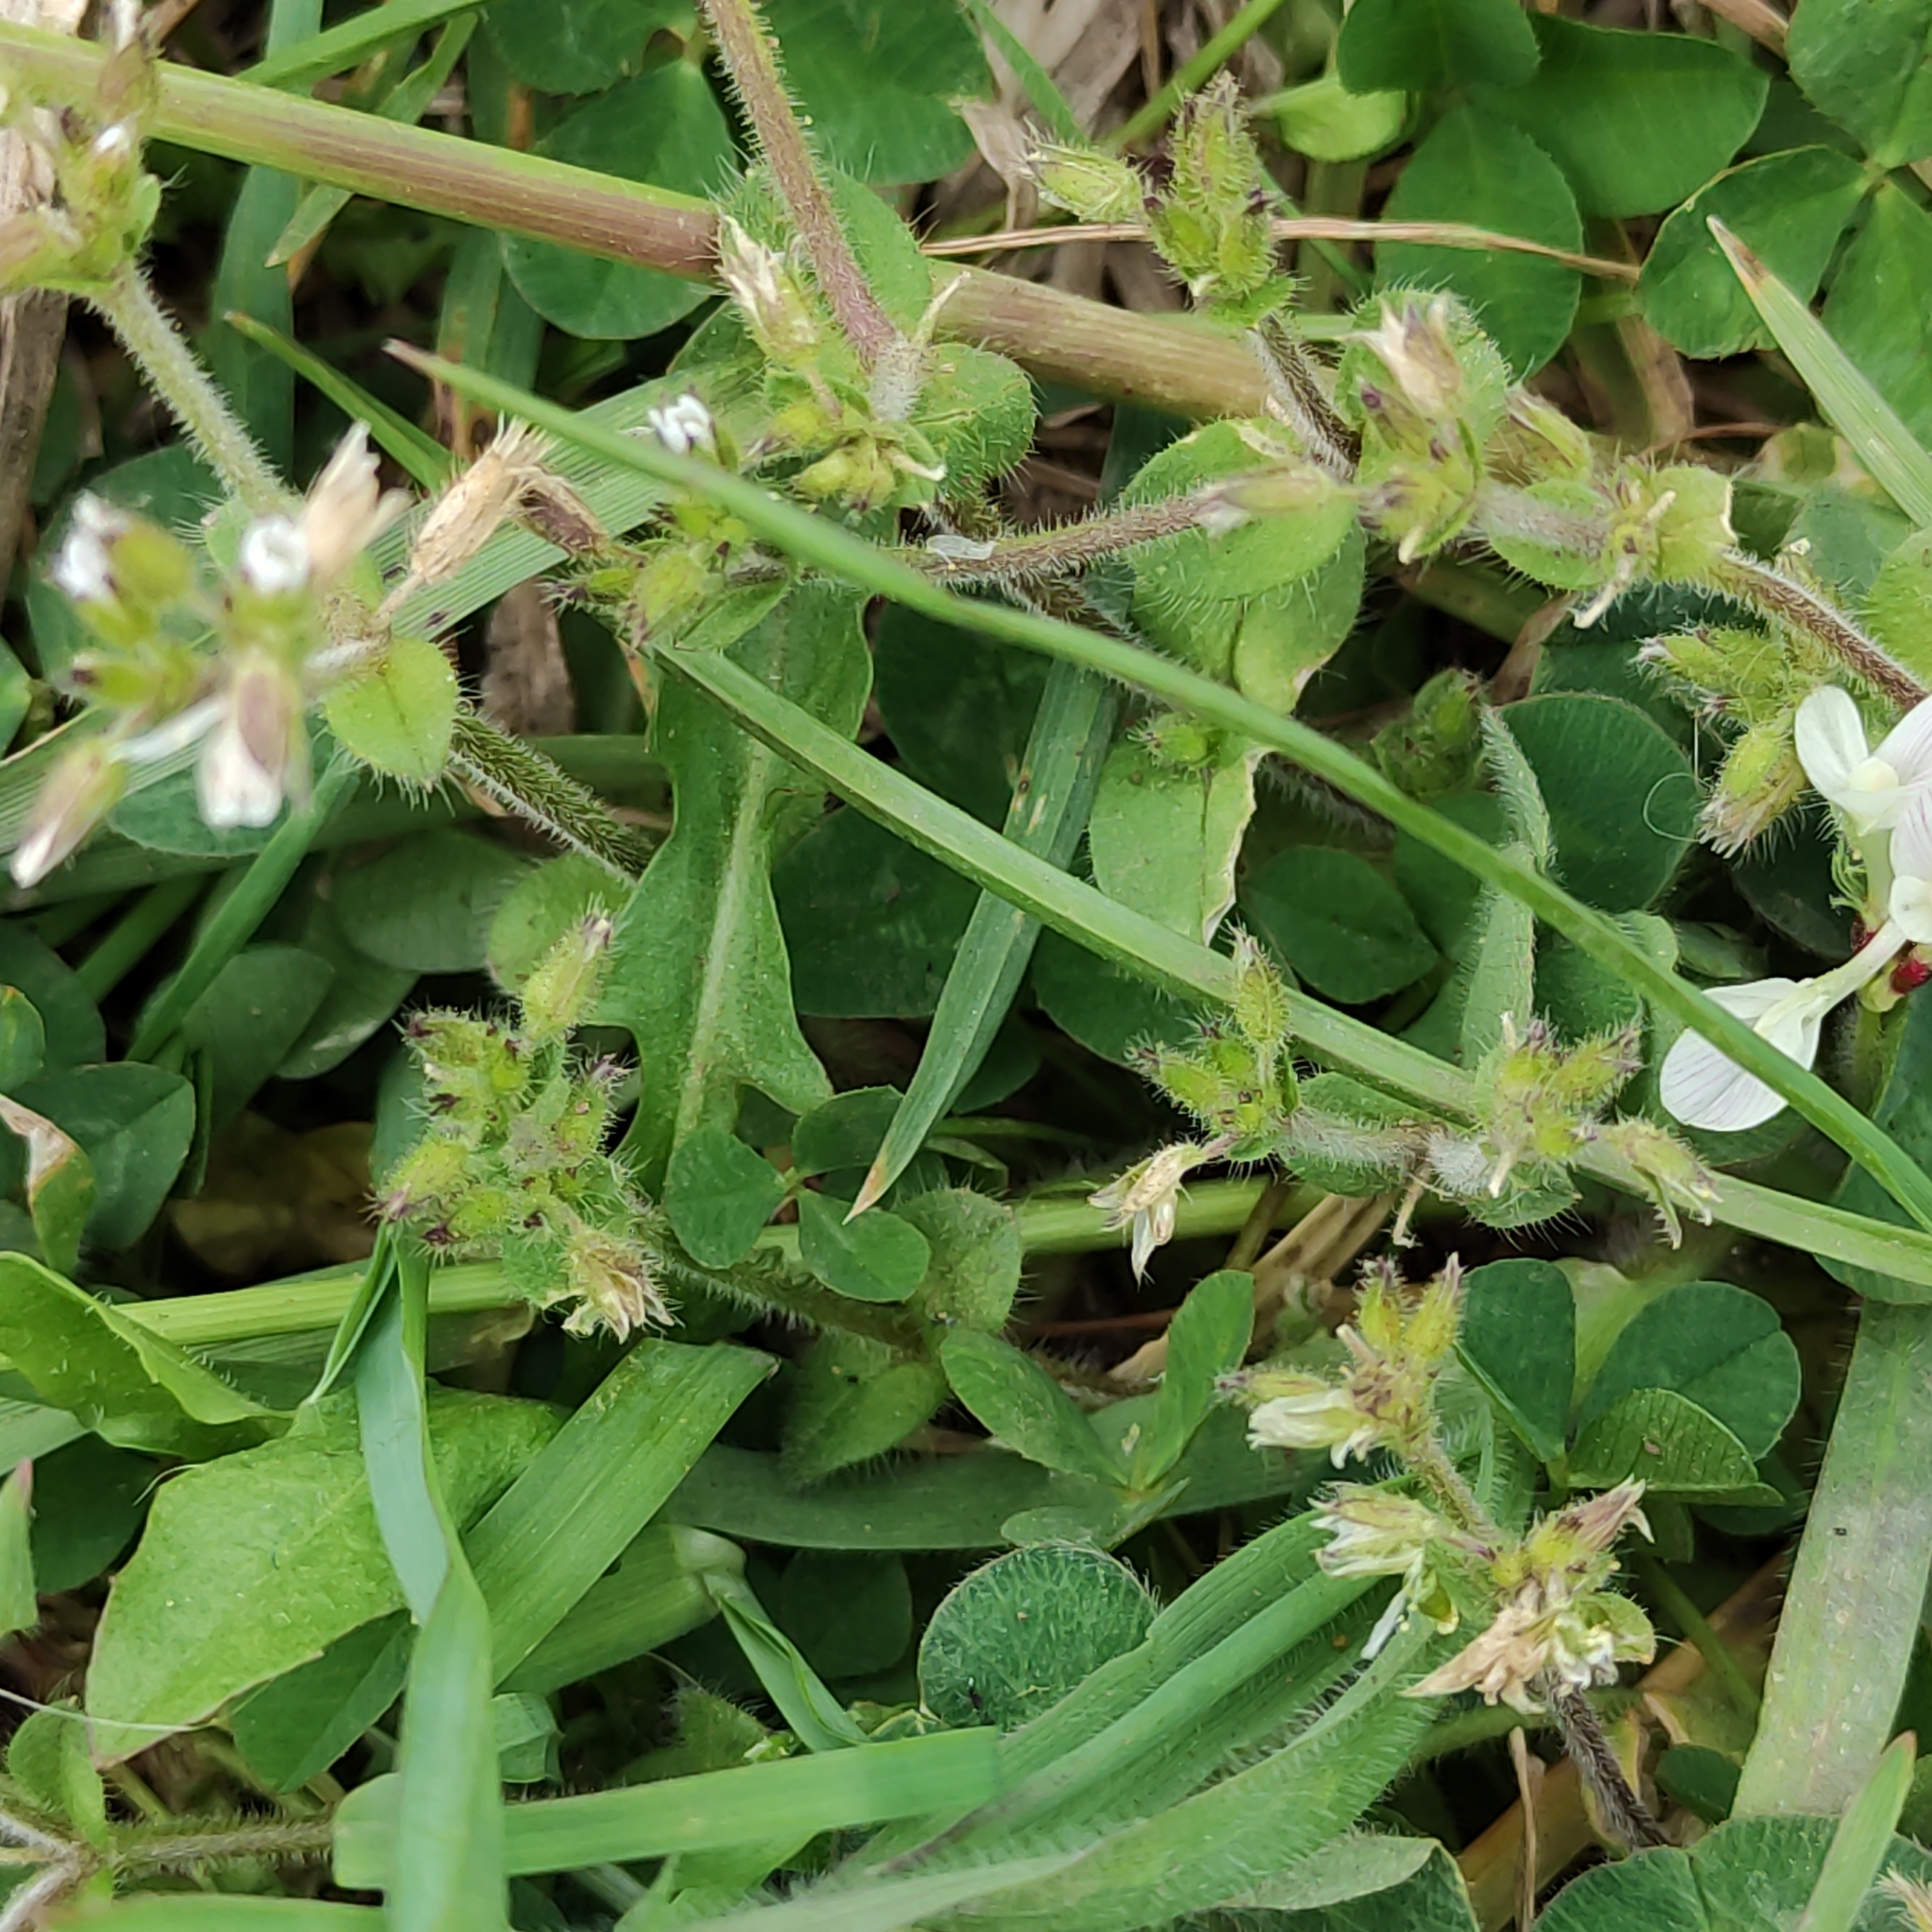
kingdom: Plantae
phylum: Tracheophyta
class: Magnoliopsida
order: Caryophyllales
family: Caryophyllaceae
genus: Cerastium
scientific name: Cerastium glomeratum
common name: Sticky chickweed
